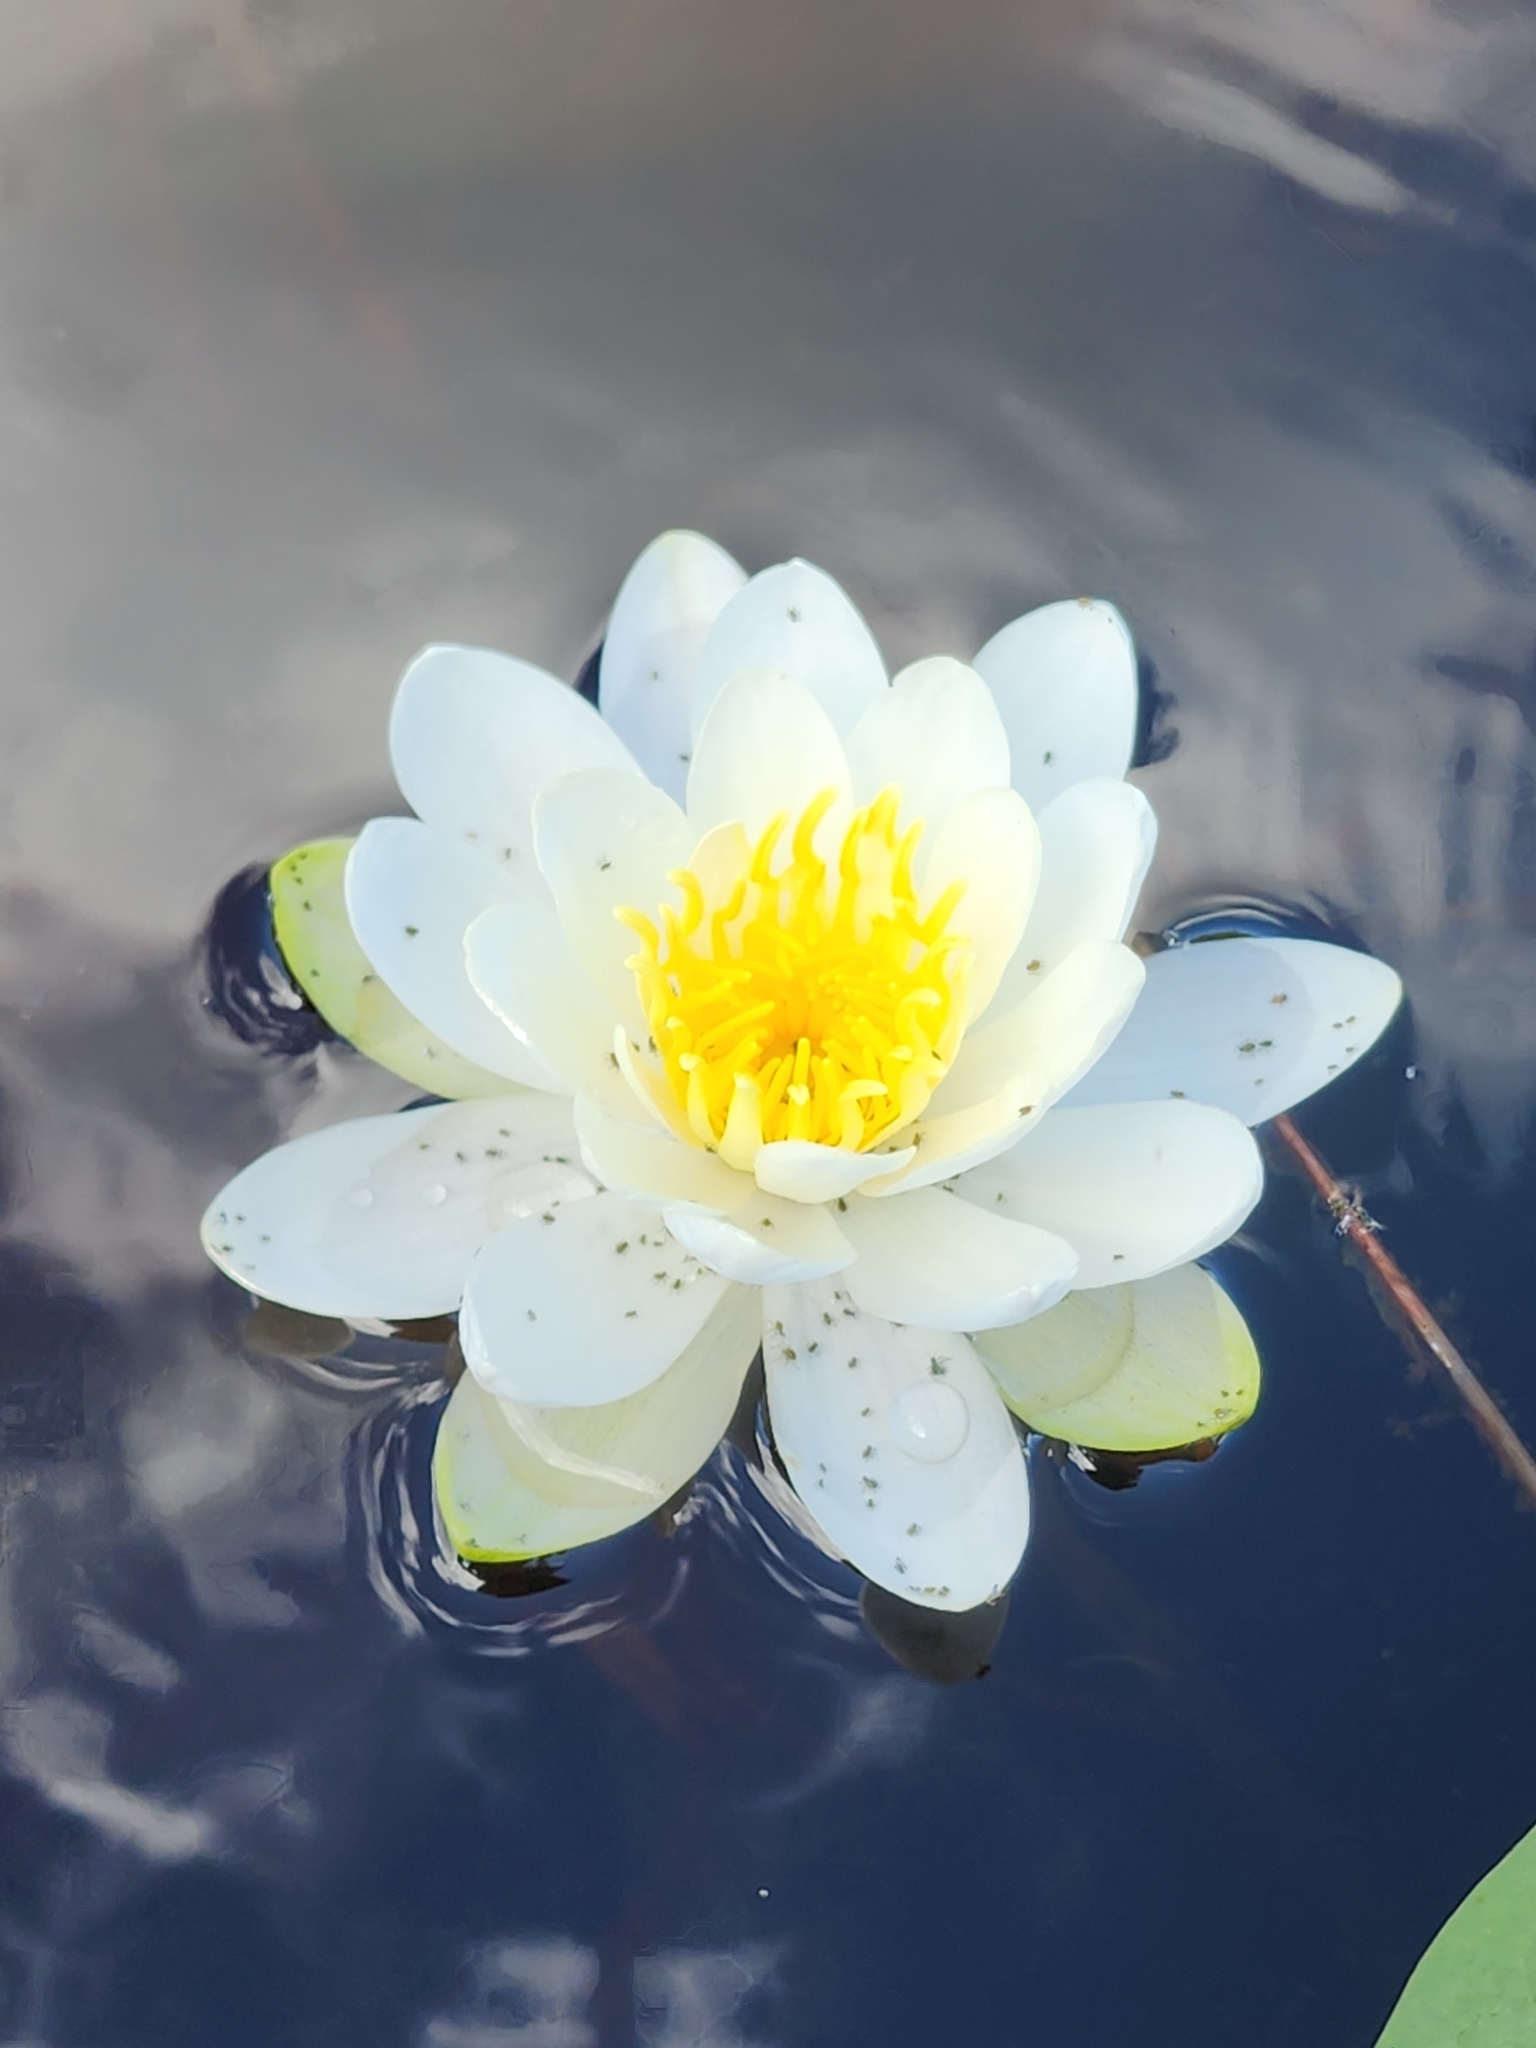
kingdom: Plantae
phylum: Tracheophyta
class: Magnoliopsida
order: Nymphaeales
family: Nymphaeaceae
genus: Nymphaea
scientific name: Nymphaea odorata
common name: Fragrant water-lily
